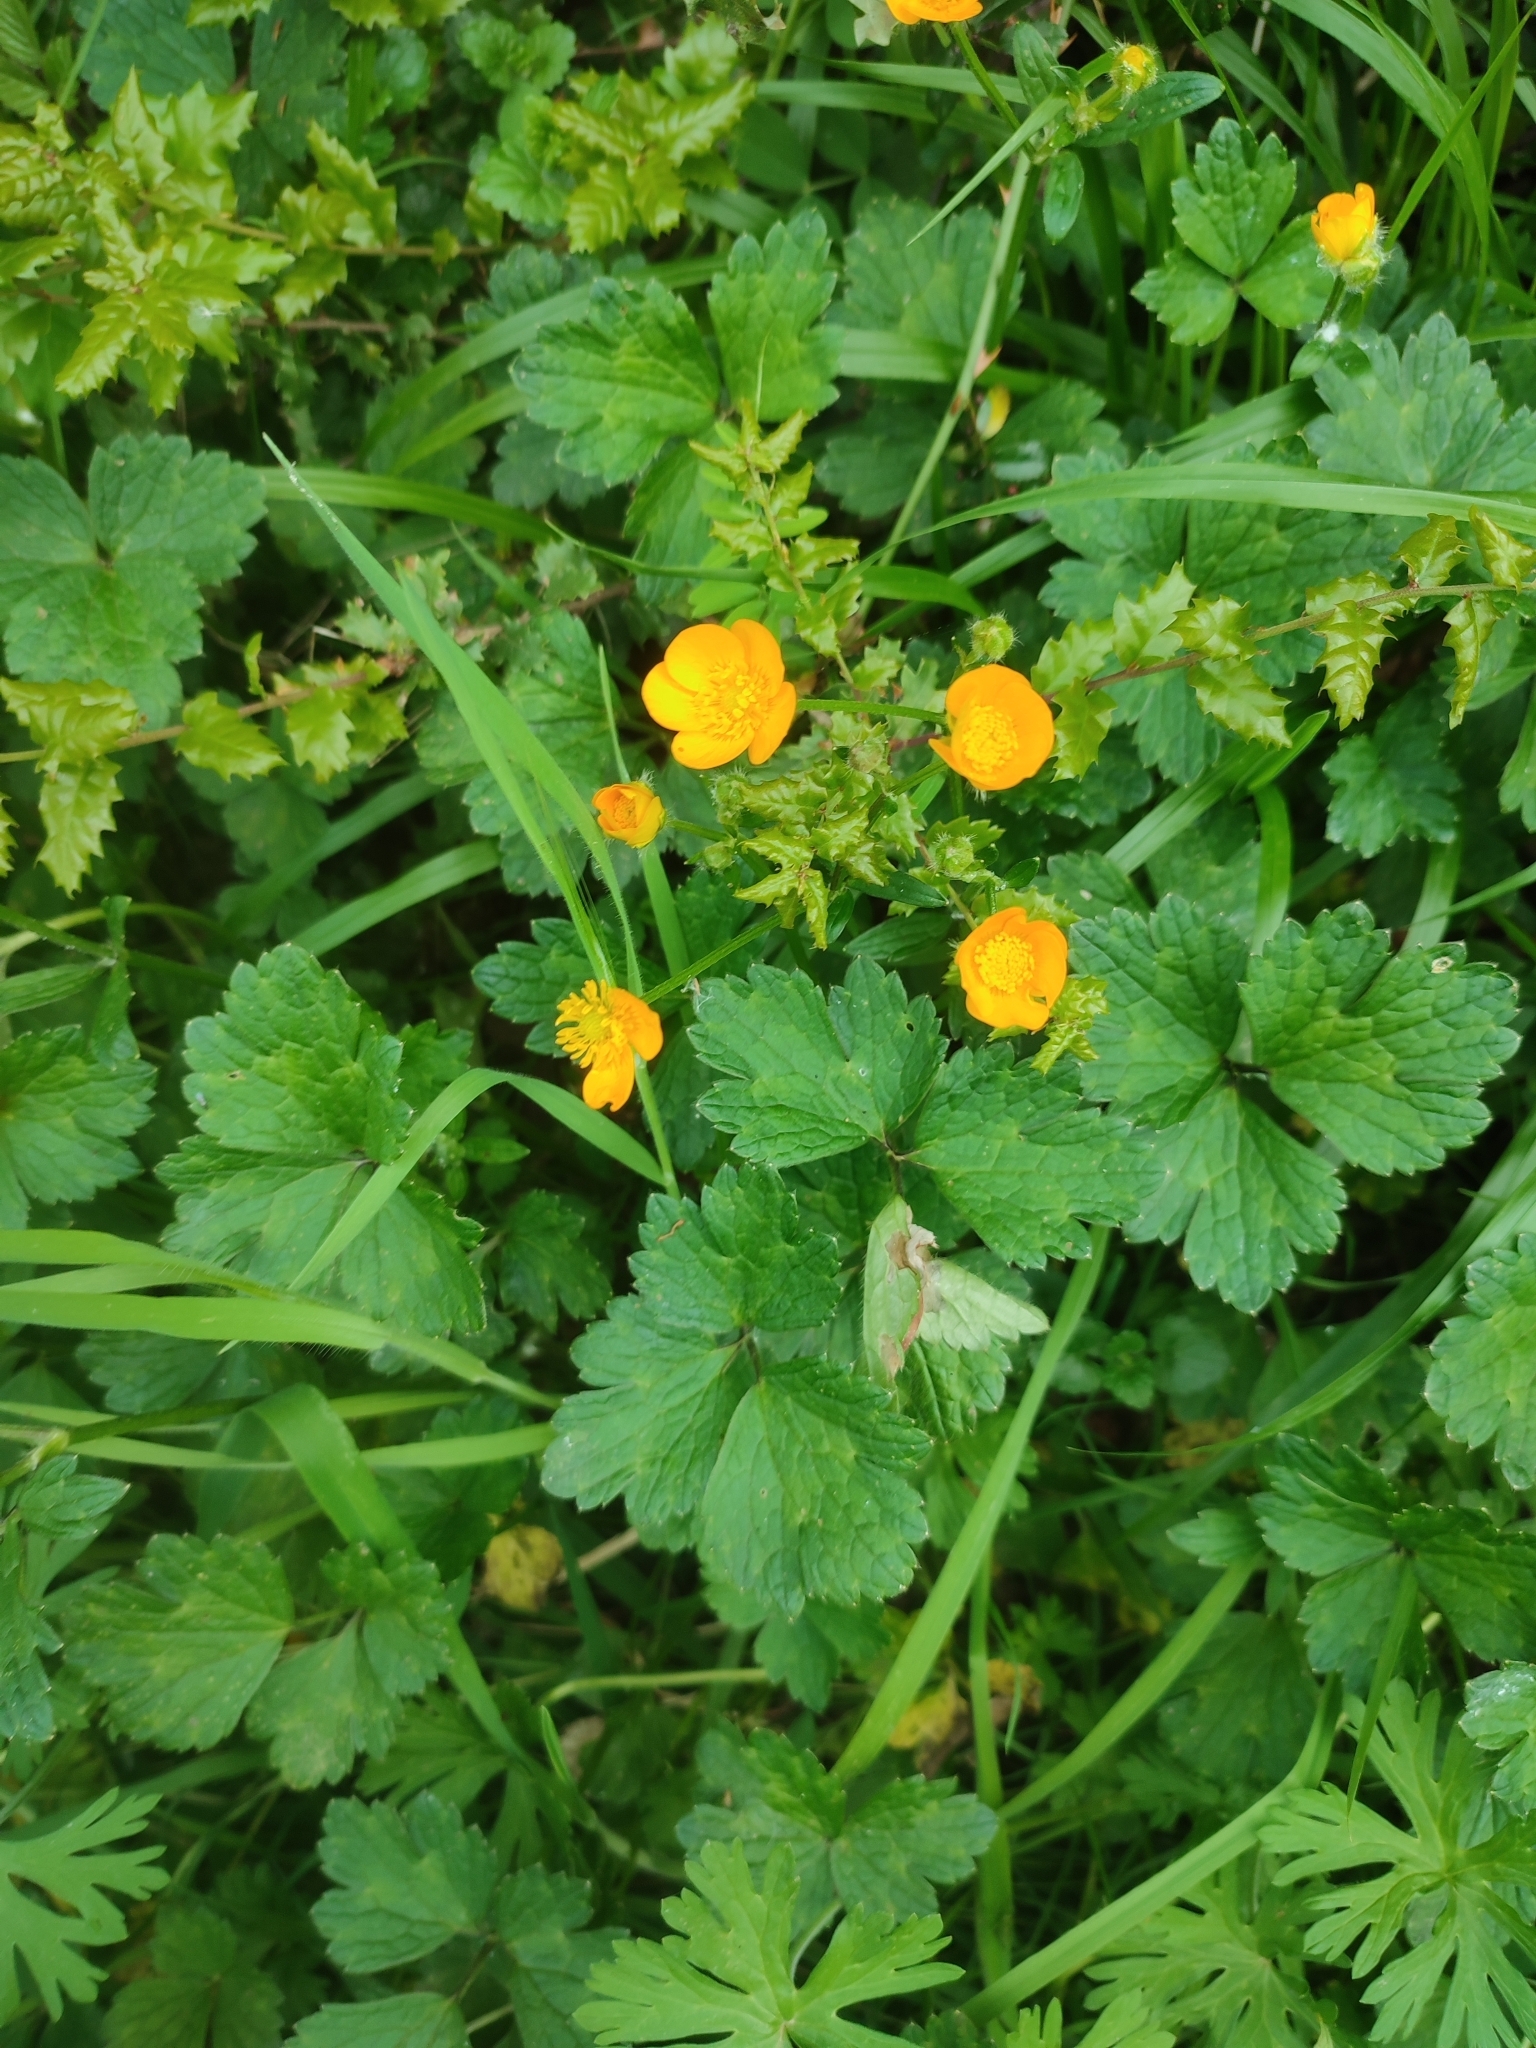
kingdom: Plantae
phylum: Tracheophyta
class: Magnoliopsida
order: Ranunculales
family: Ranunculaceae
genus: Ranunculus
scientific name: Ranunculus repens
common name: Creeping buttercup
